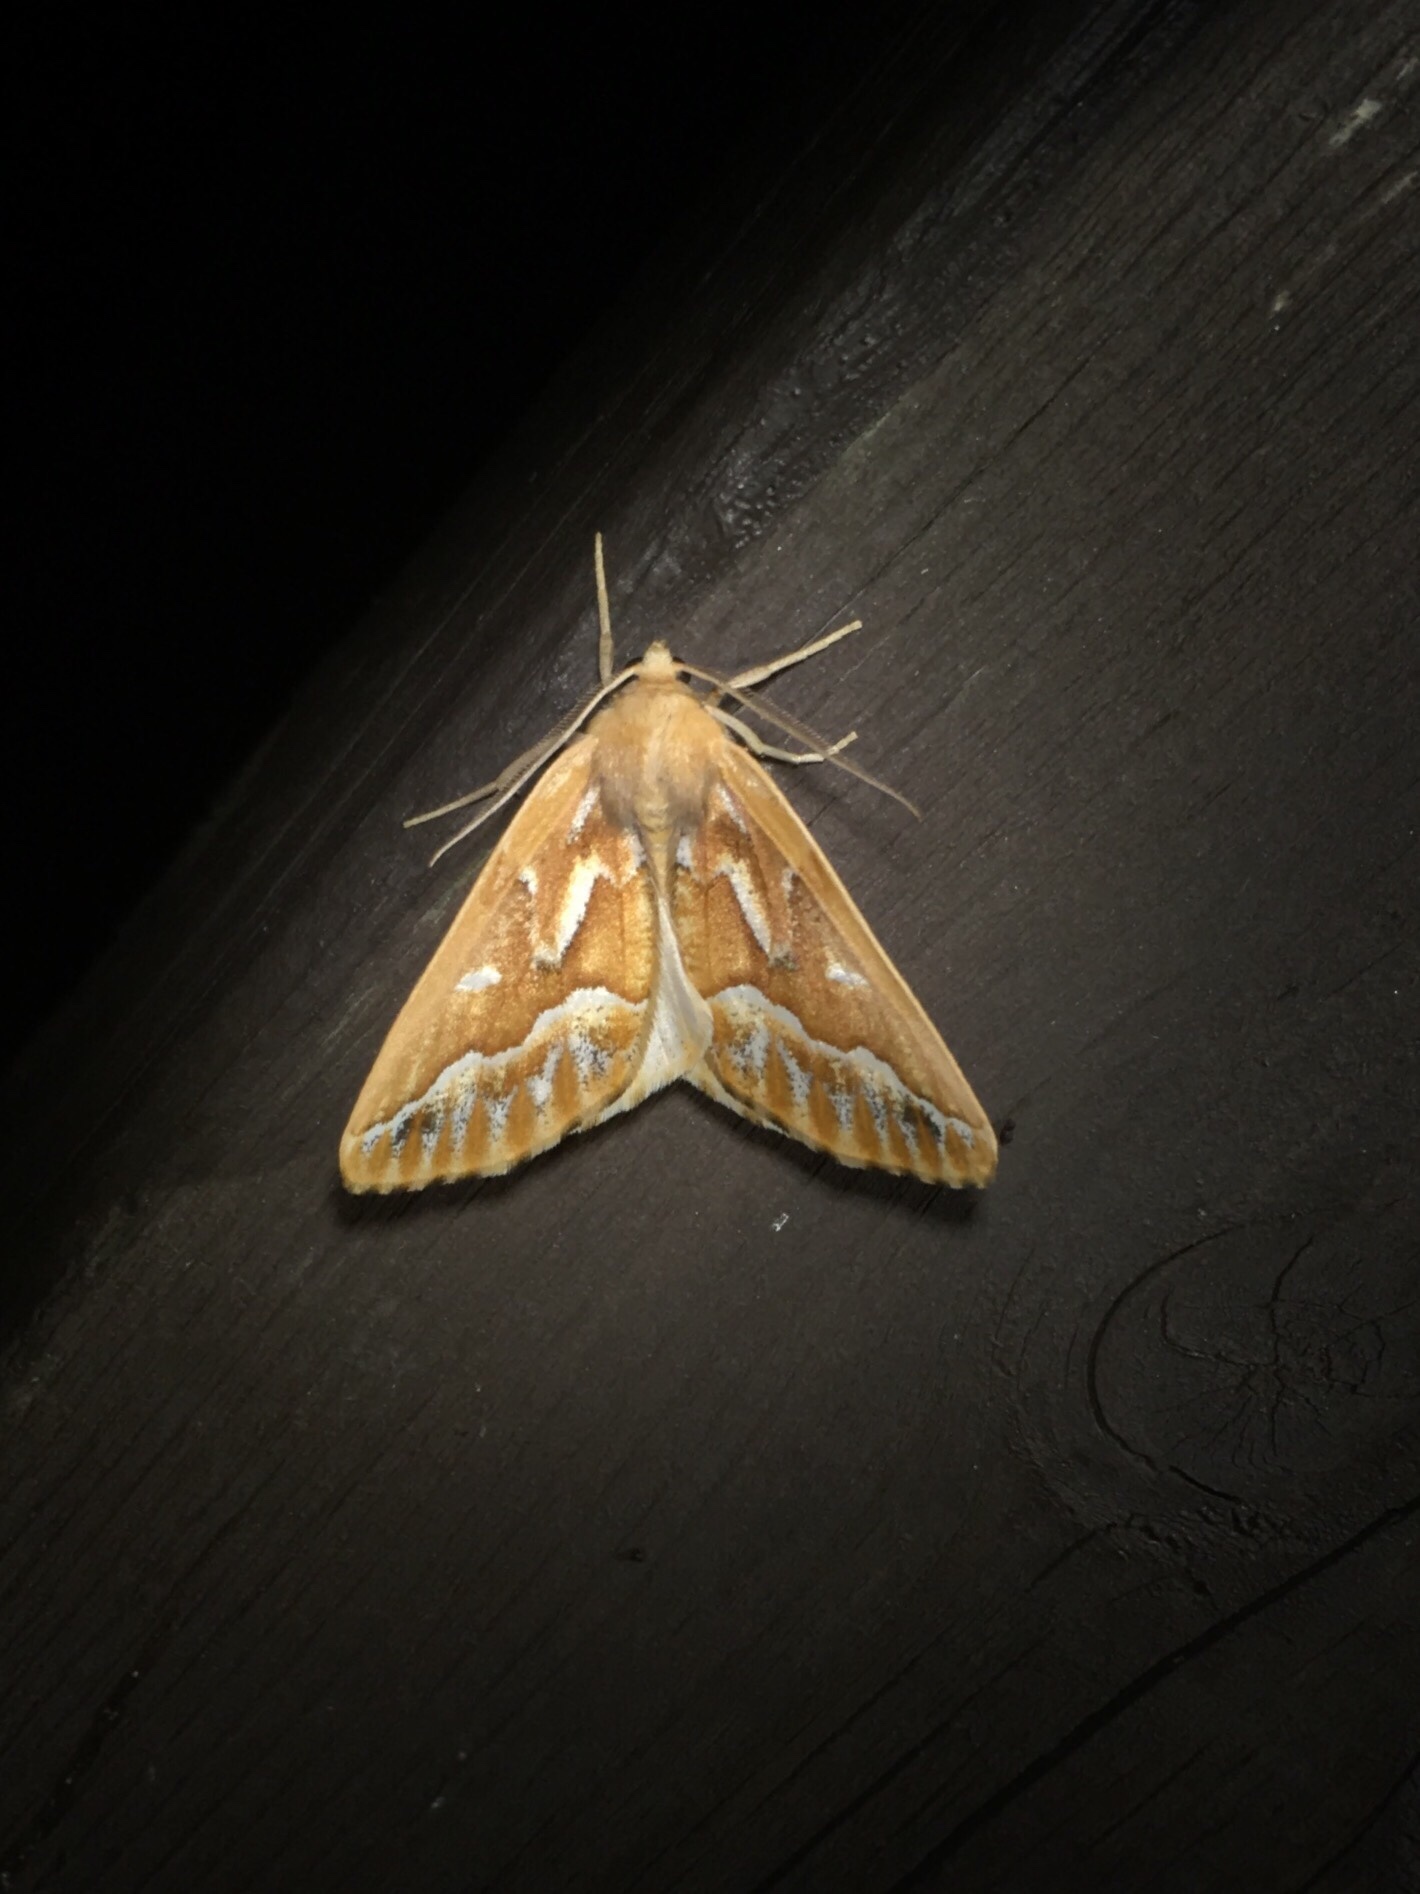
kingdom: Animalia
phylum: Arthropoda
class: Insecta
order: Lepidoptera
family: Geometridae
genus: Caripeta
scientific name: Caripeta piniata
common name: Northern pine looper moth
